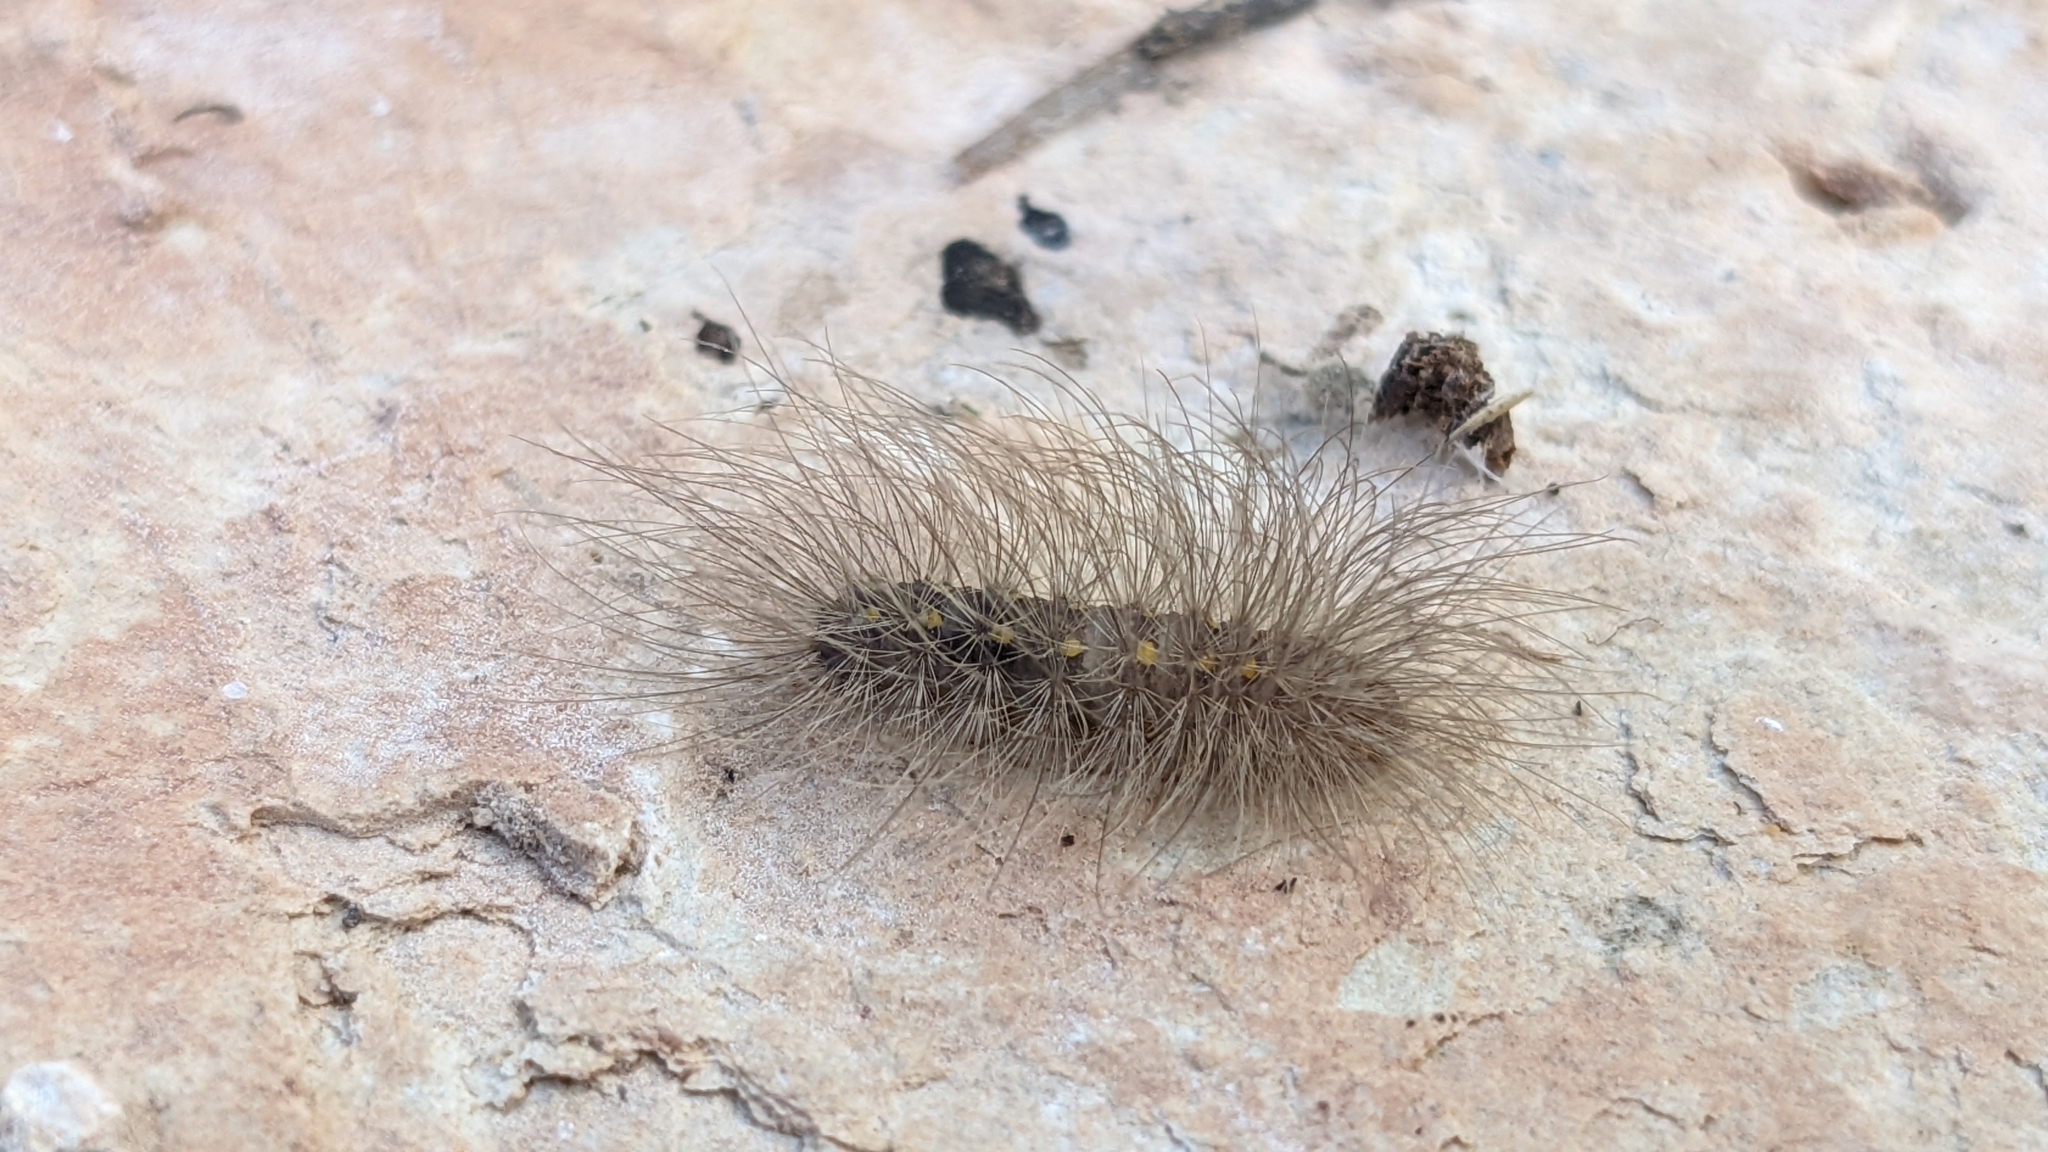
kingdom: Animalia
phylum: Arthropoda
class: Insecta
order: Lepidoptera
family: Erebidae
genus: Paidia
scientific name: Paidia rica
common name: Glaucous muslin
